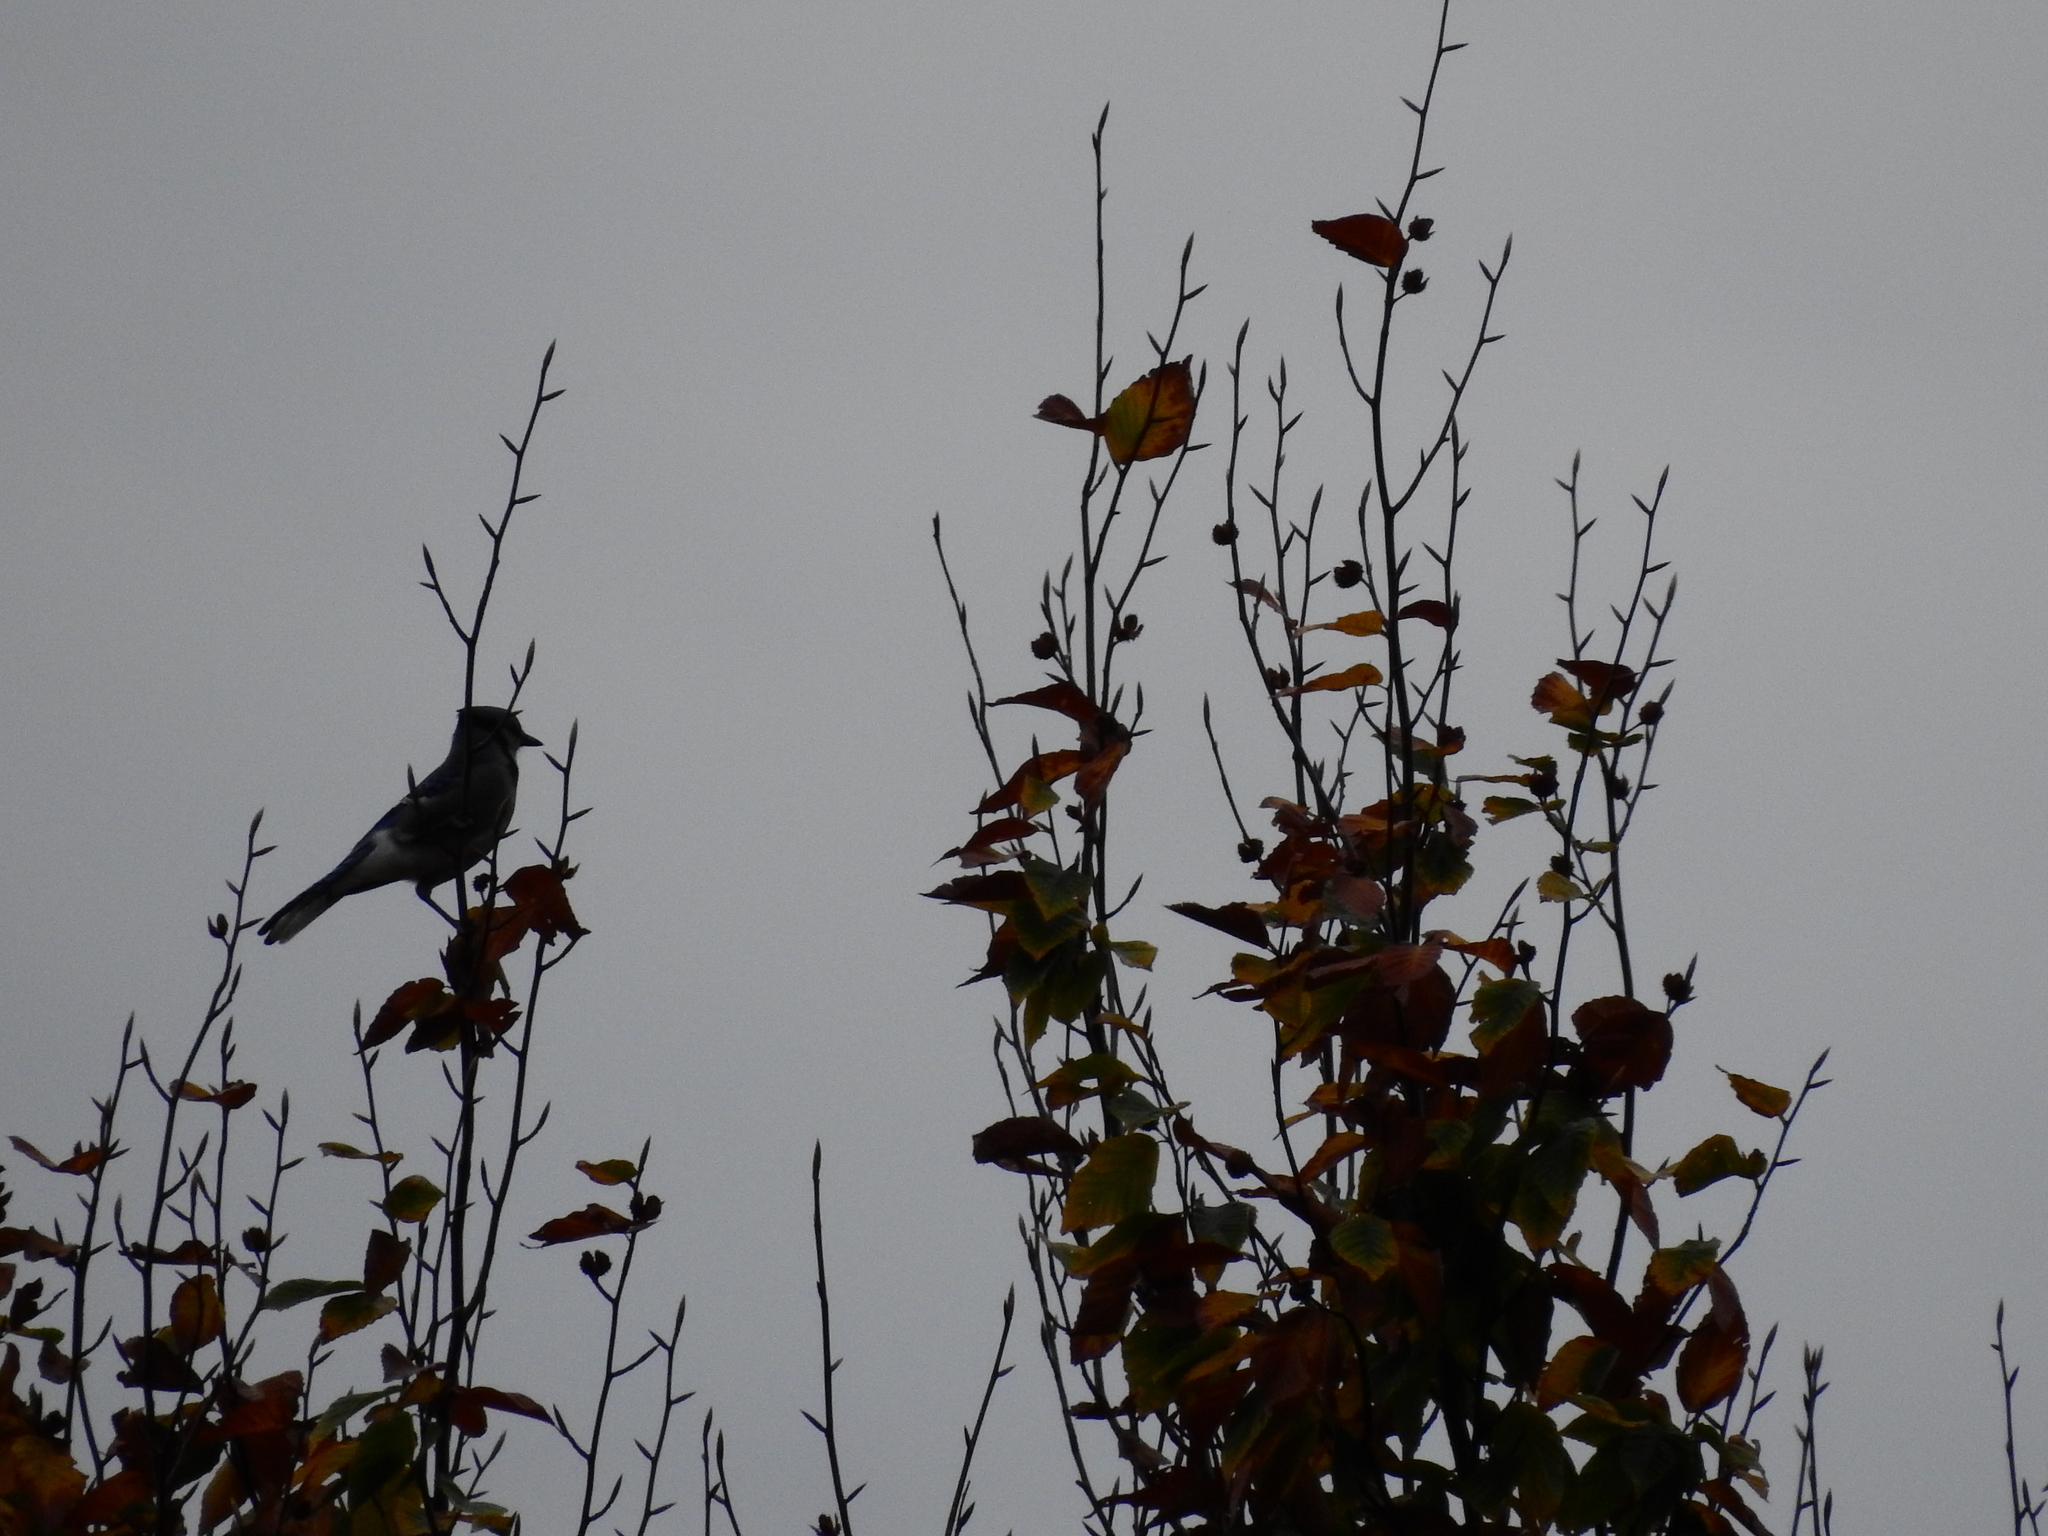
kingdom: Animalia
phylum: Chordata
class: Aves
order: Passeriformes
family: Corvidae
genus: Cyanocitta
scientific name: Cyanocitta cristata
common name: Blue jay
